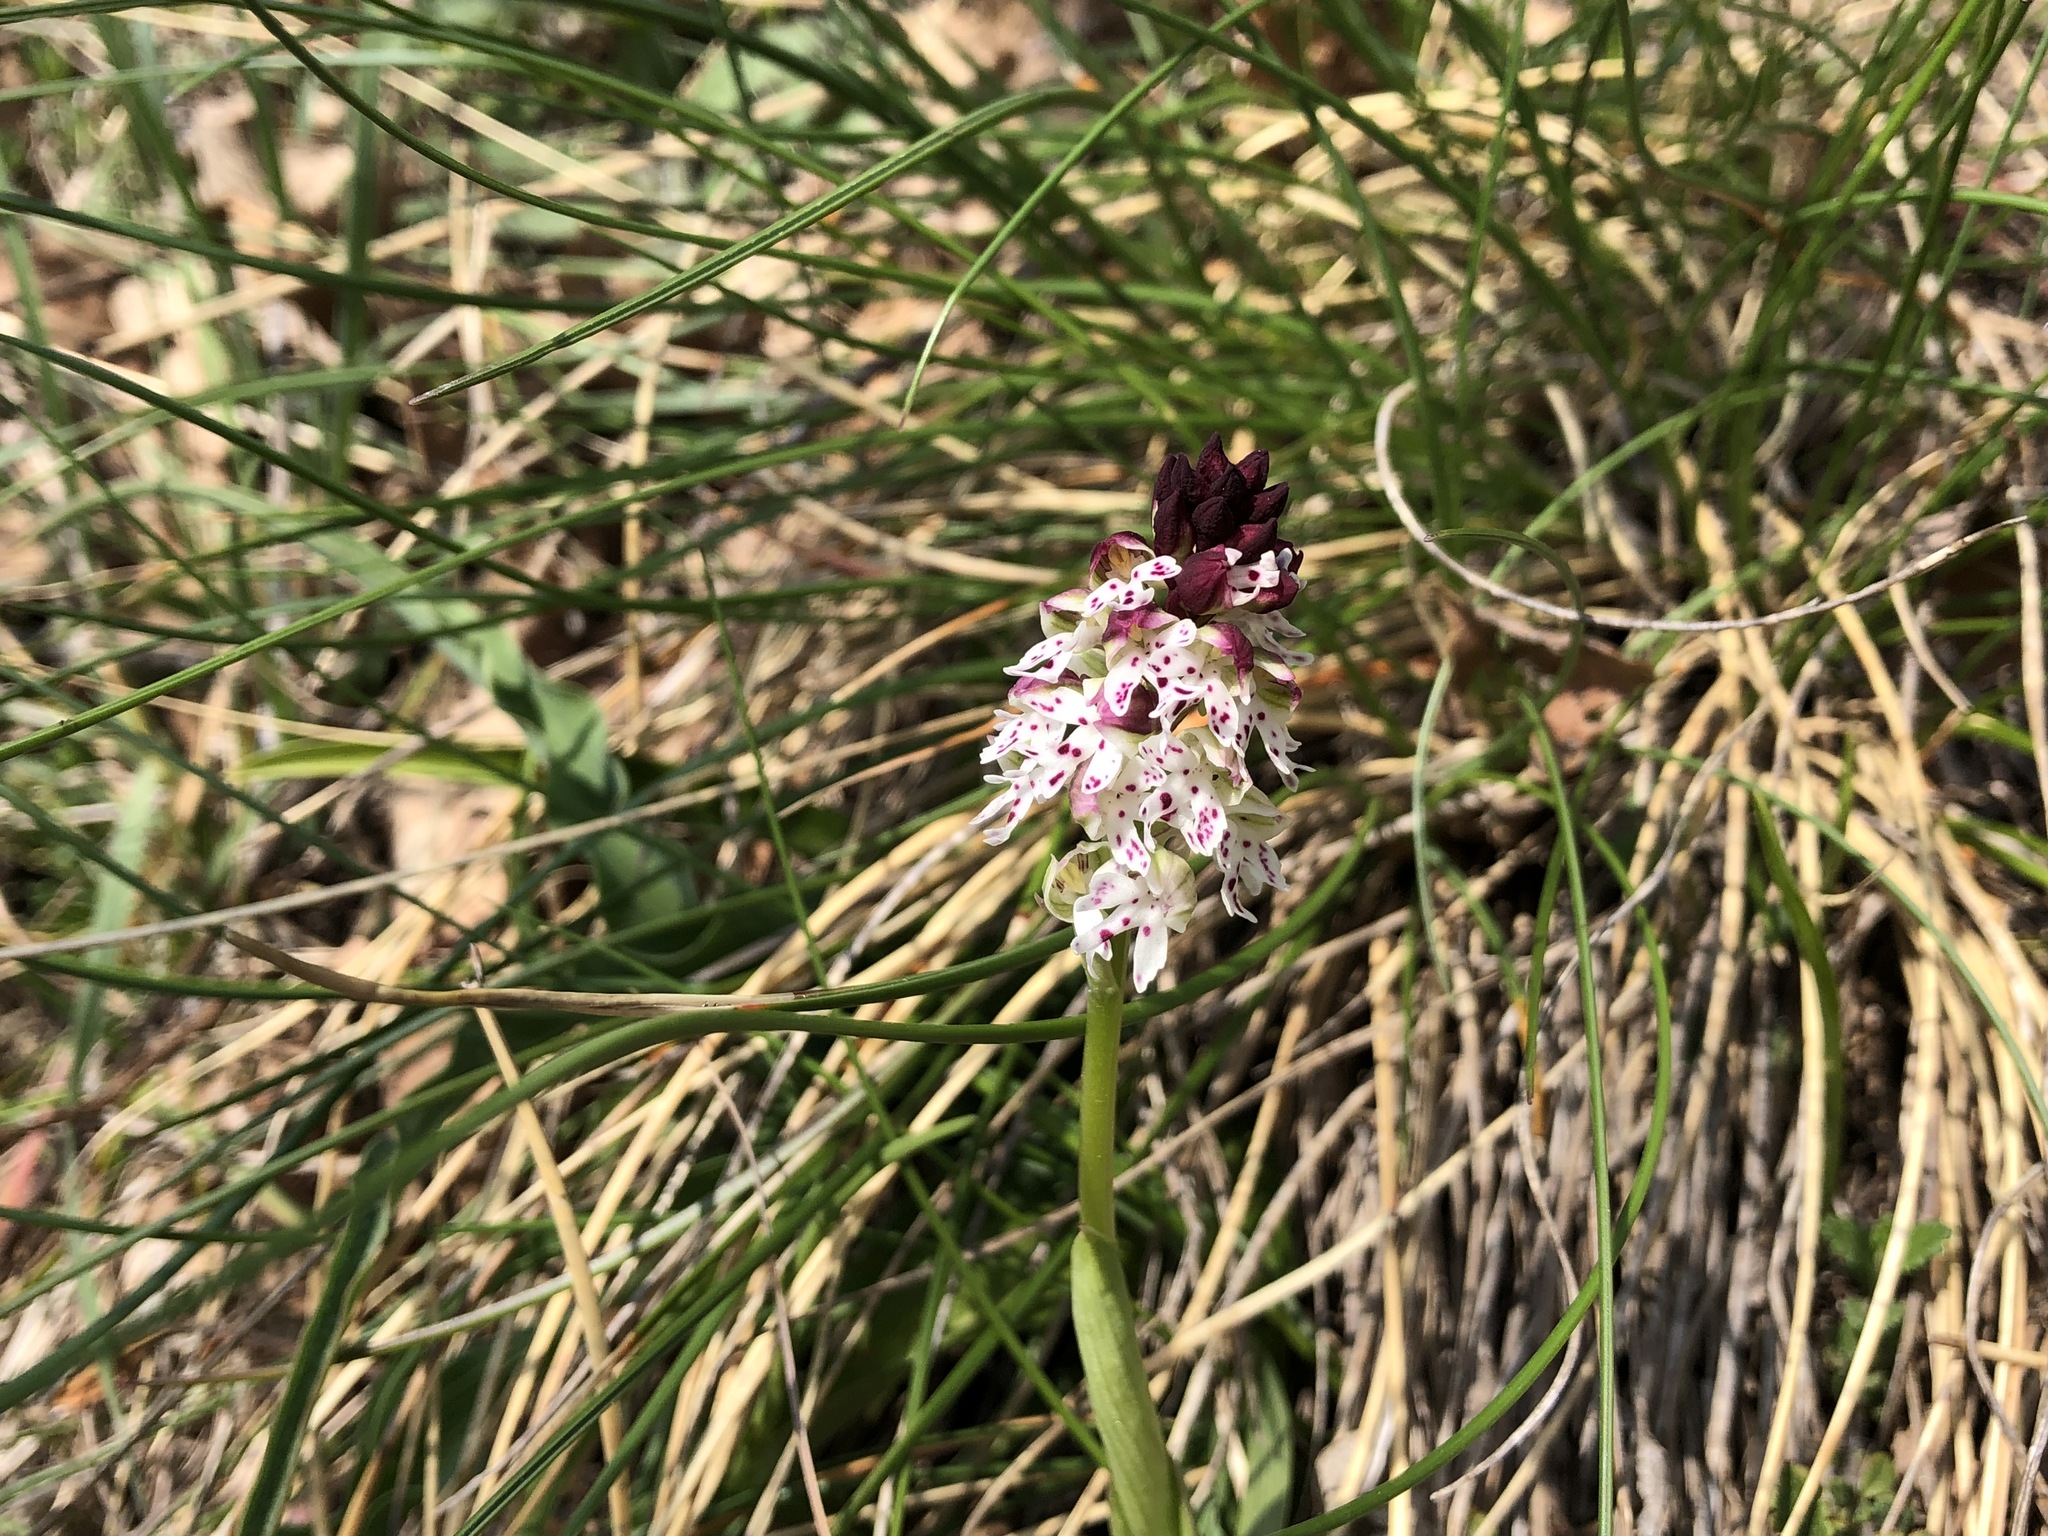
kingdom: Plantae
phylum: Tracheophyta
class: Liliopsida
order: Asparagales
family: Orchidaceae
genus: Neotinea
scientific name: Neotinea ustulata
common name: Burnt orchid
